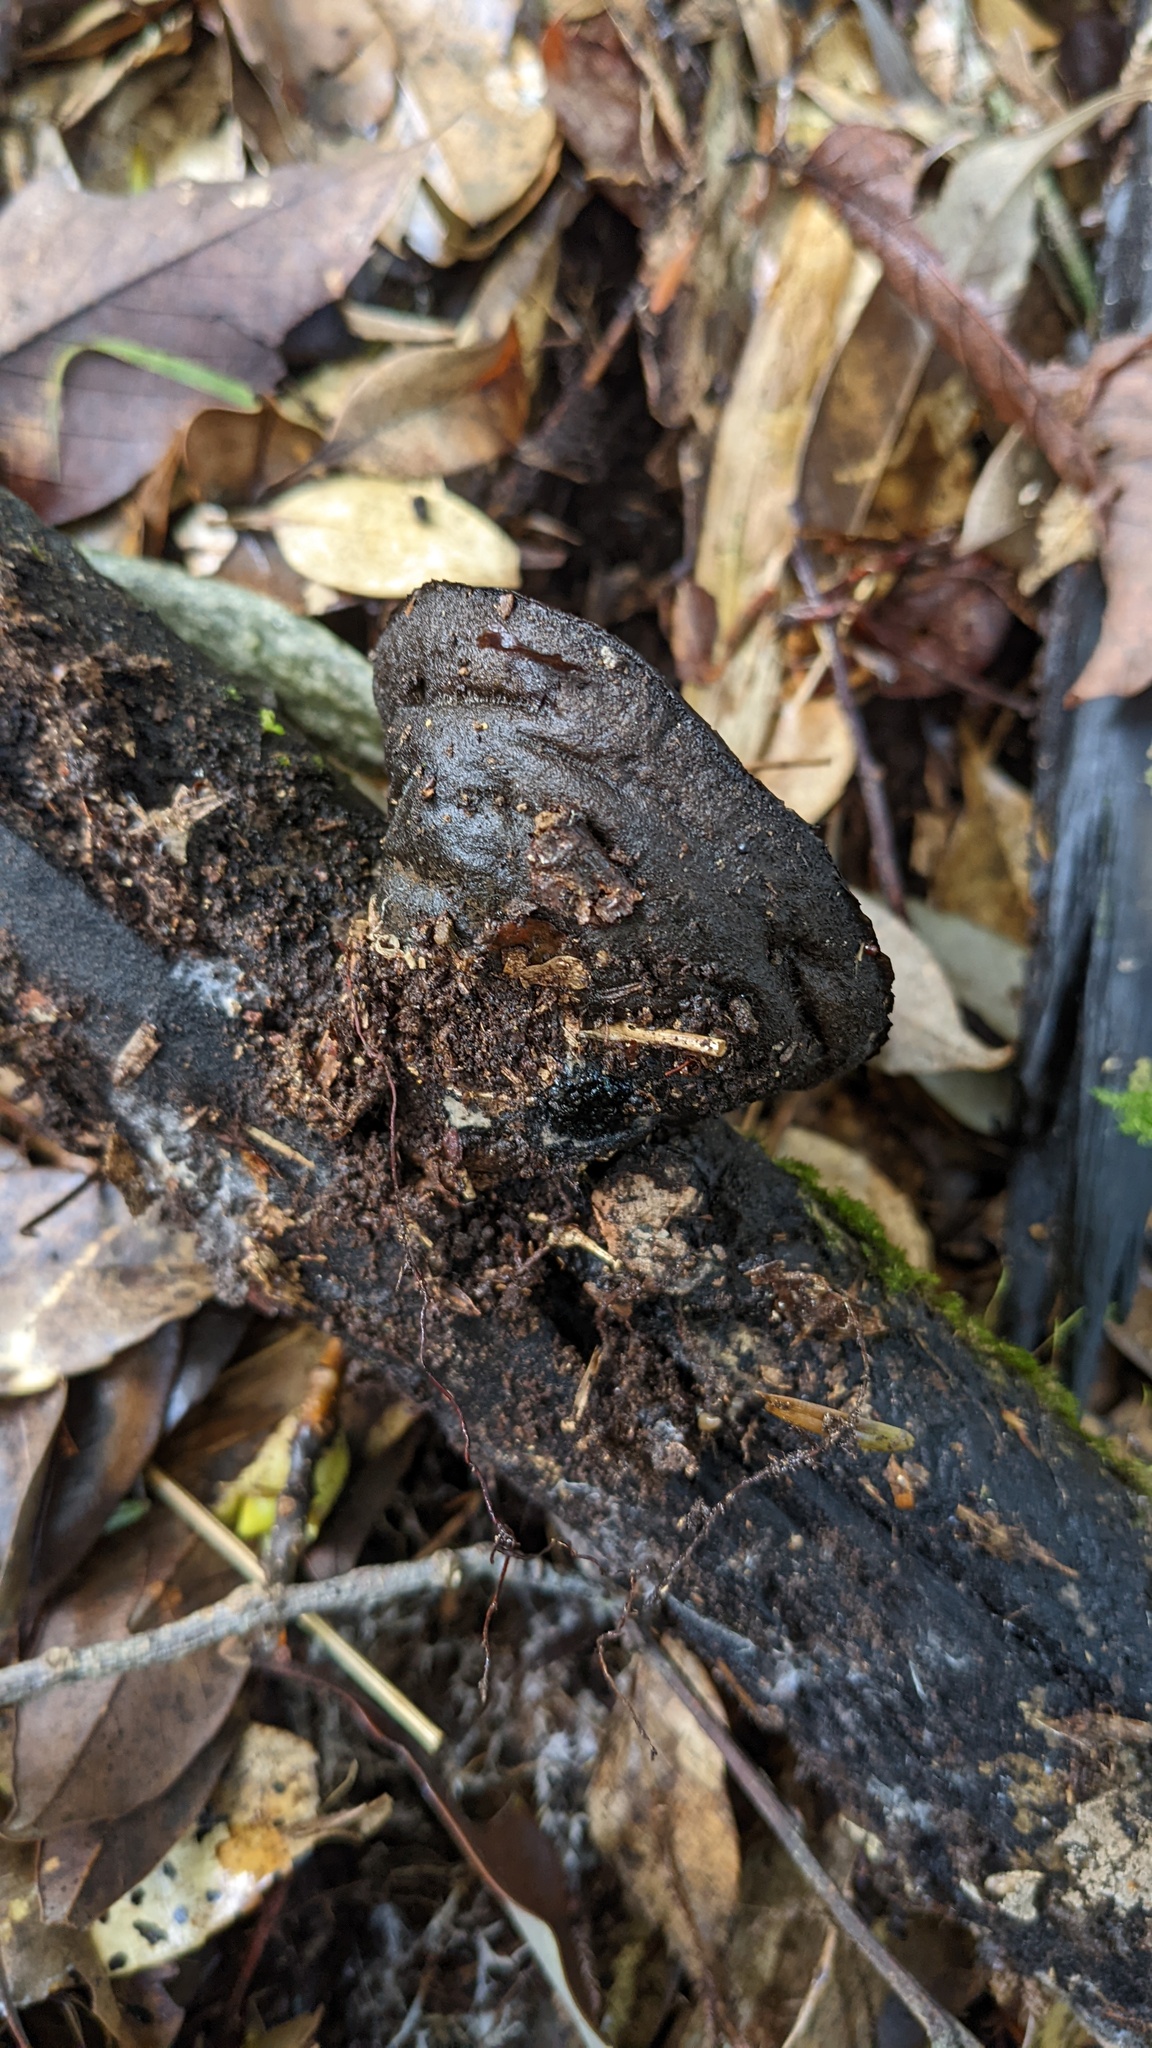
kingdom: Fungi
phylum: Ascomycota
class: Pezizomycetes
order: Pezizales
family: Pyronemataceae
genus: Trichaleurina
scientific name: Trichaleurina tenuispora
